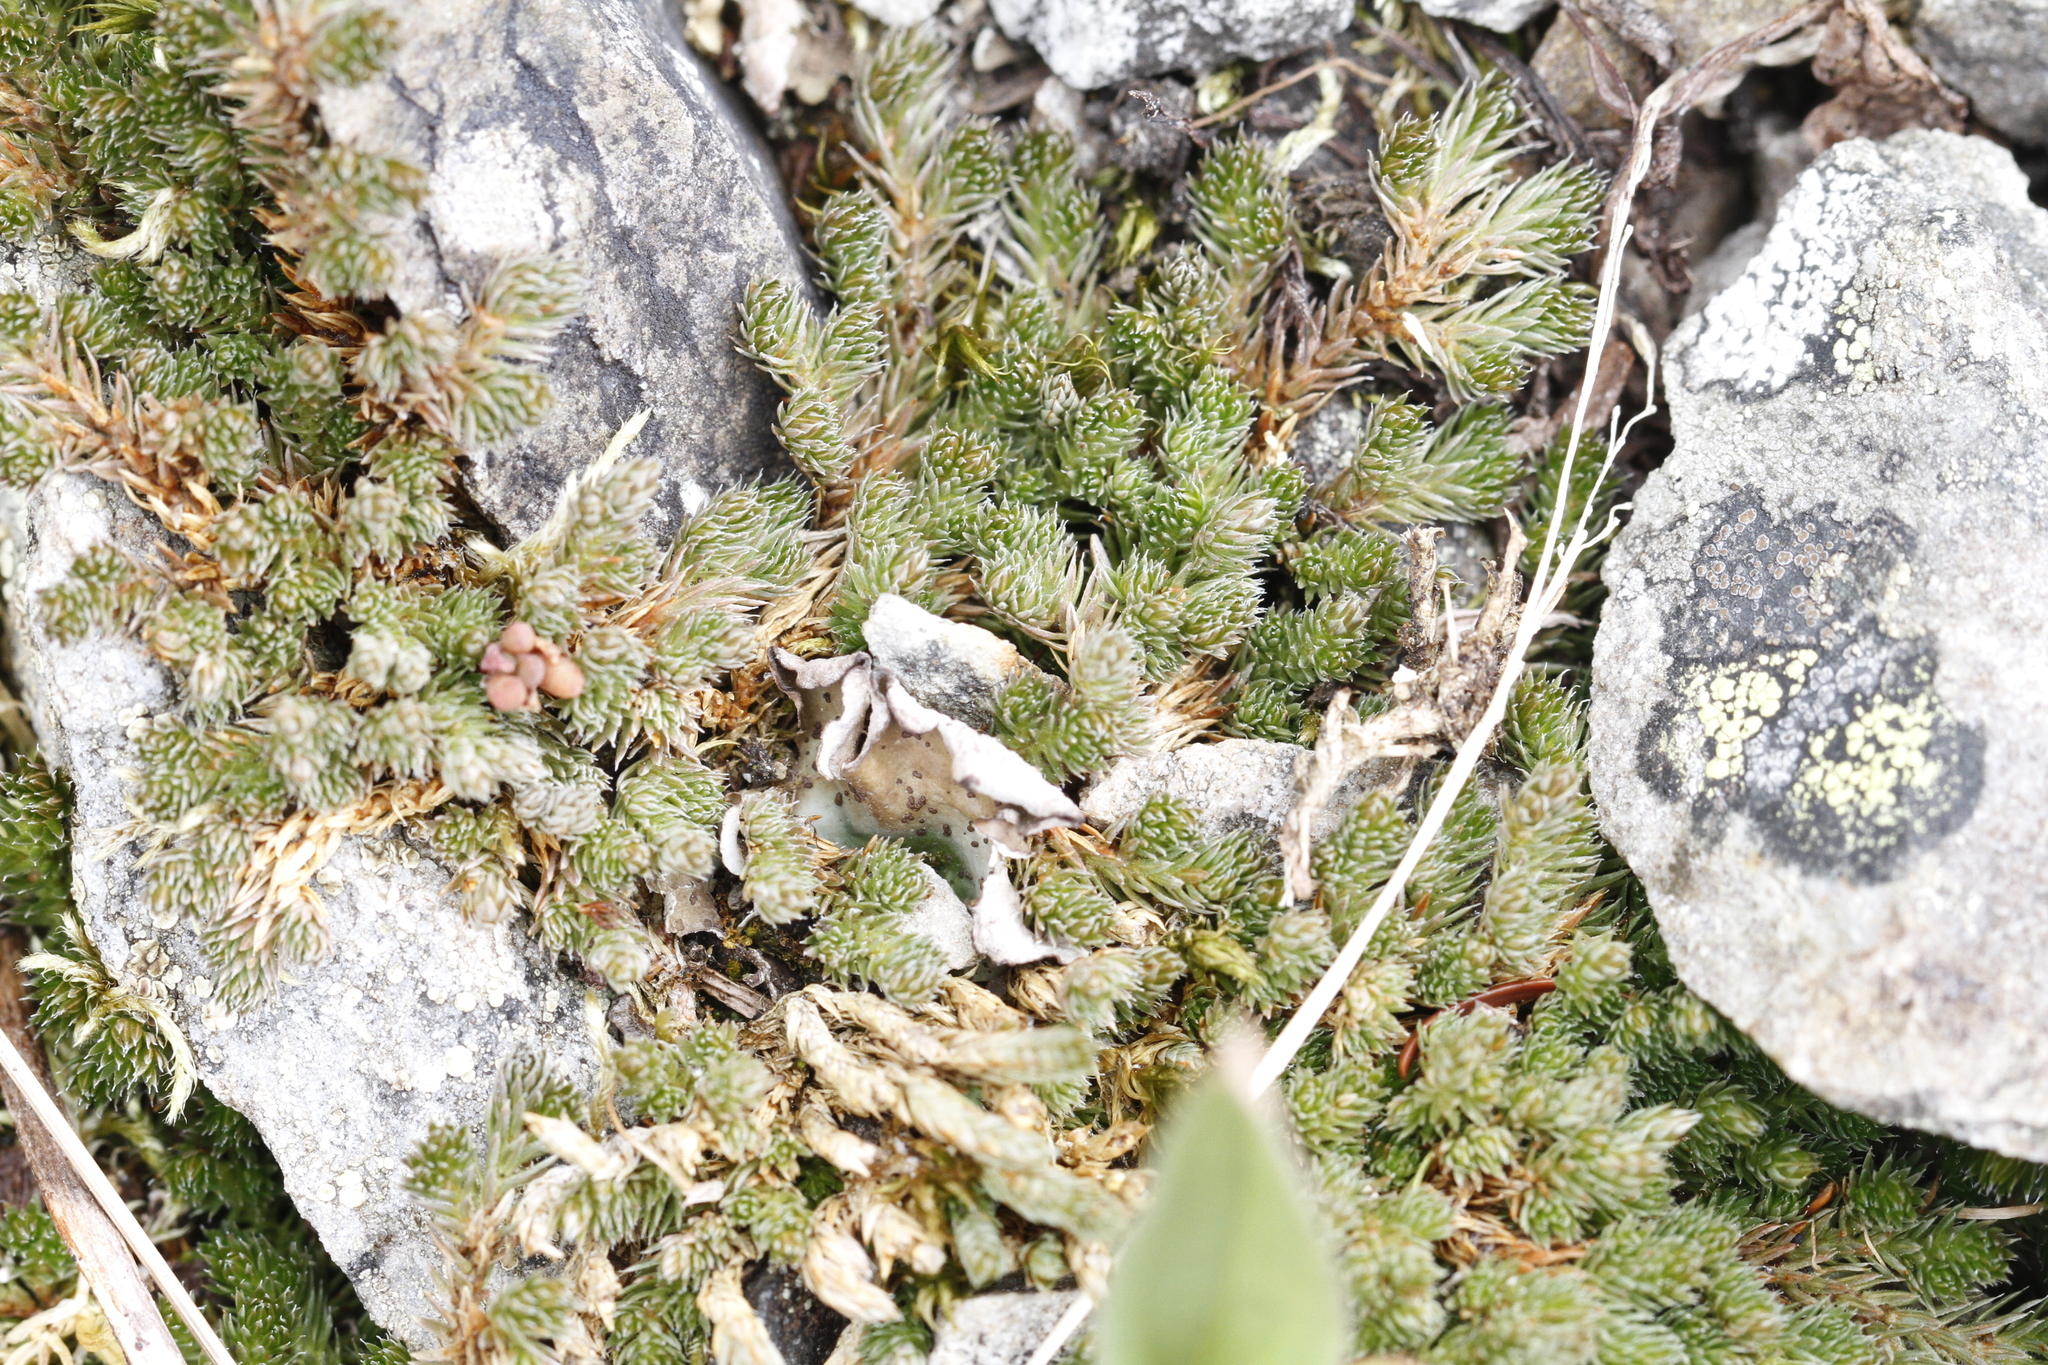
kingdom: Plantae
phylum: Tracheophyta
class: Lycopodiopsida
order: Selaginellales
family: Selaginellaceae
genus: Selaginella
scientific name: Selaginella densa
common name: Mountain spike-moss
